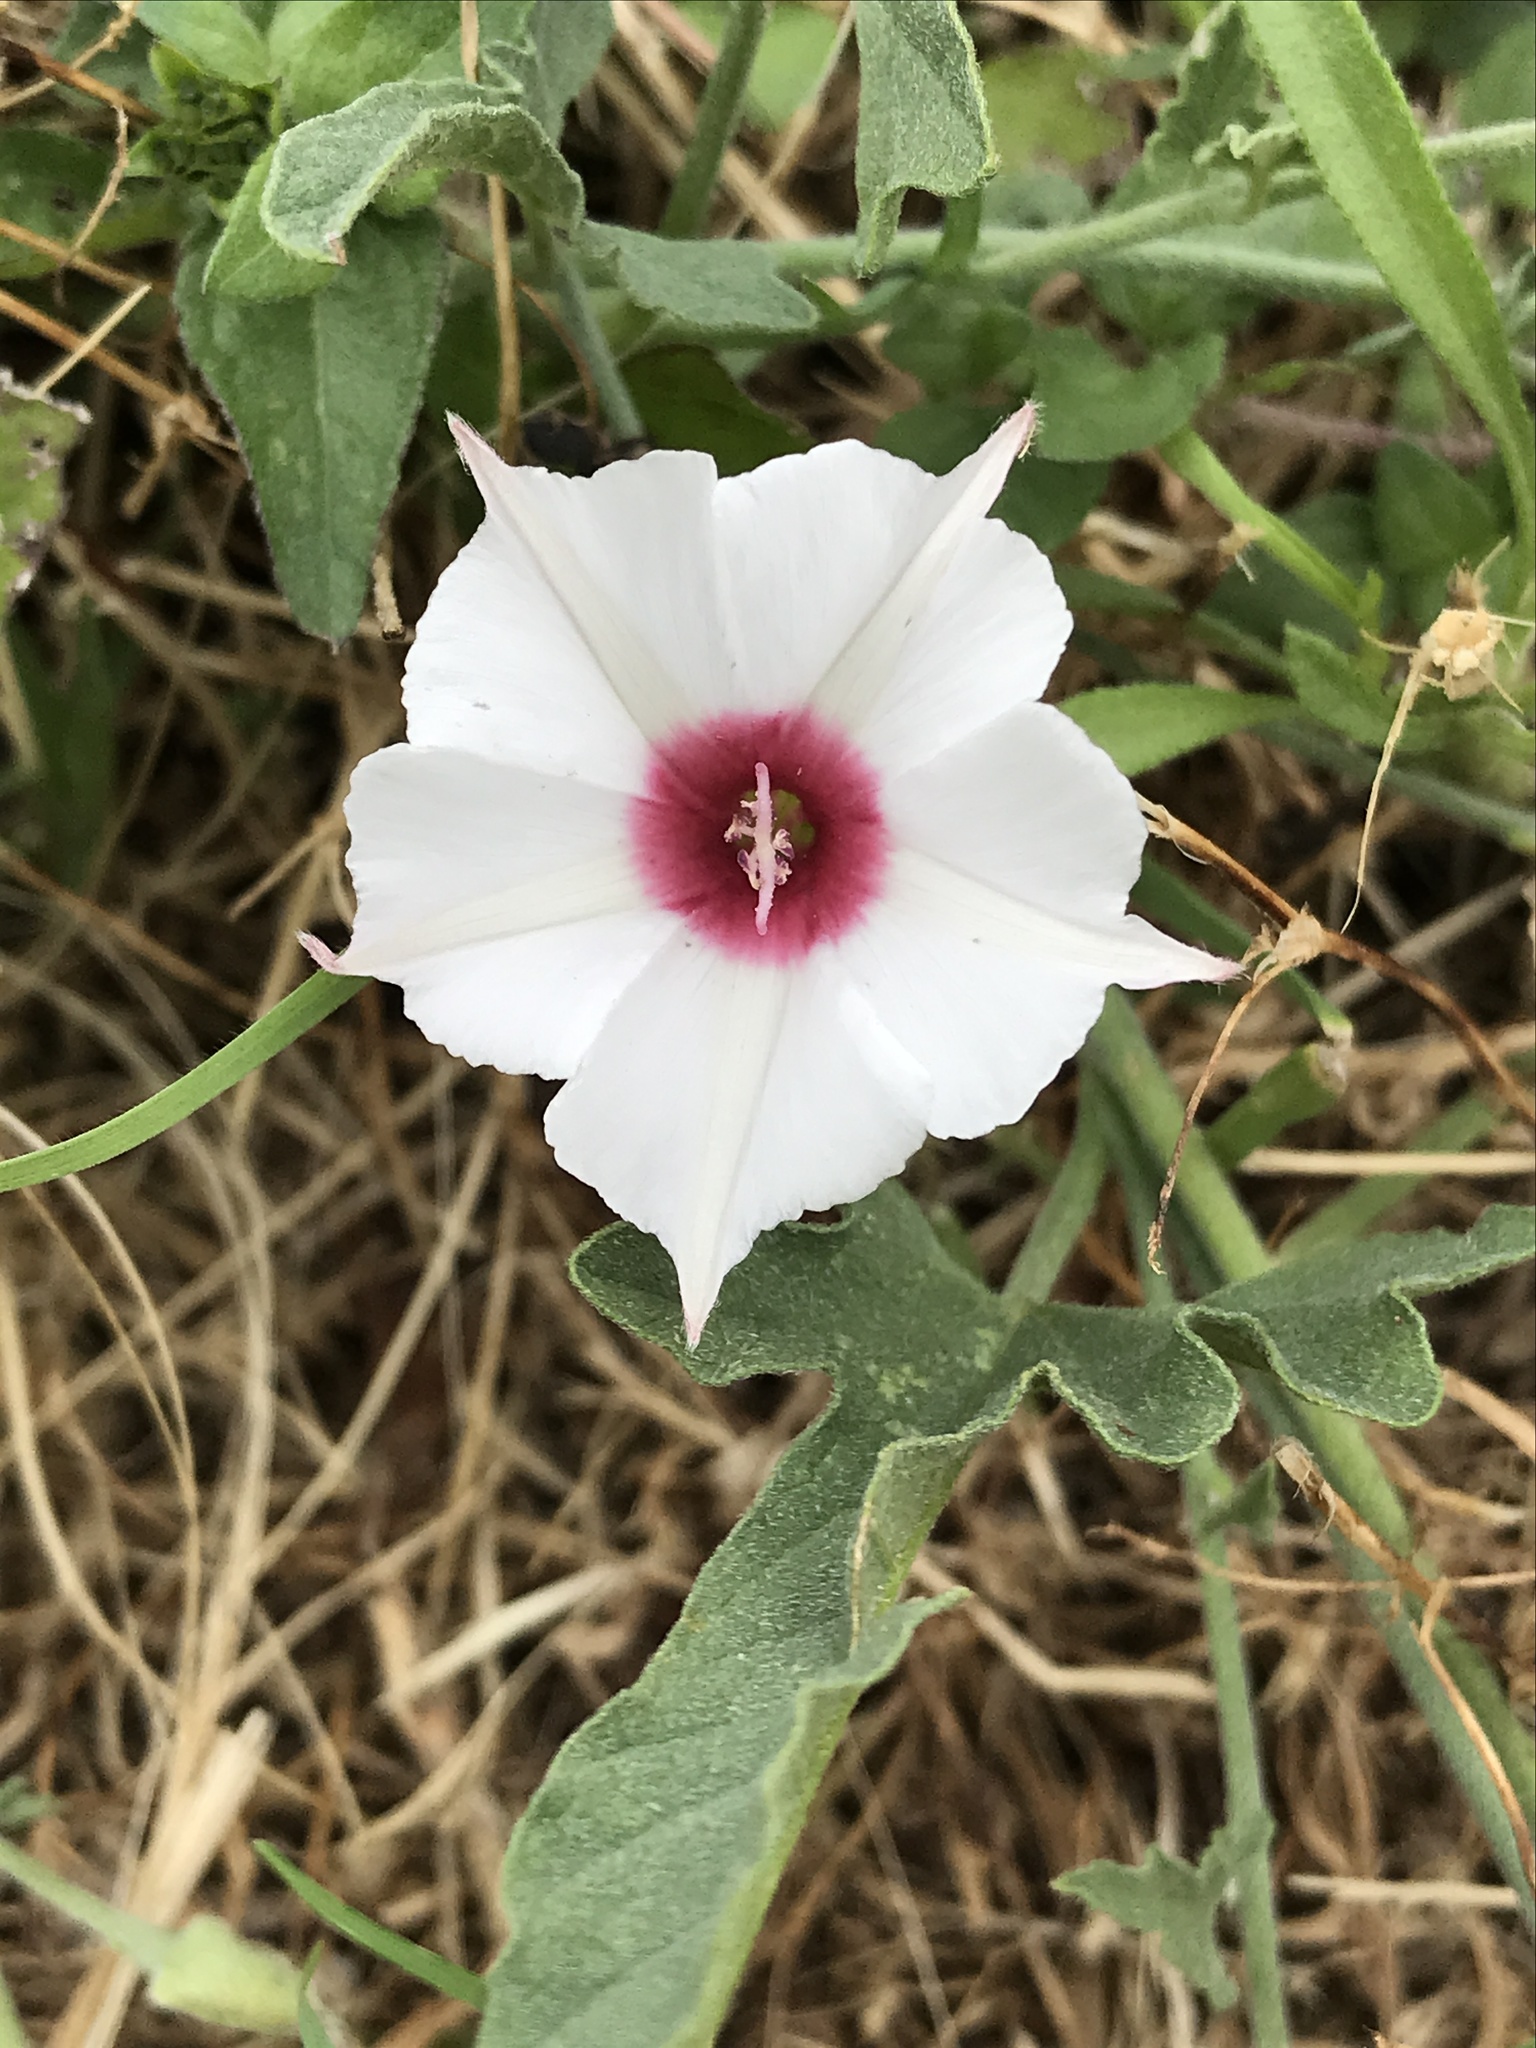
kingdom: Plantae
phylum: Tracheophyta
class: Magnoliopsida
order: Solanales
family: Convolvulaceae
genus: Convolvulus
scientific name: Convolvulus equitans
